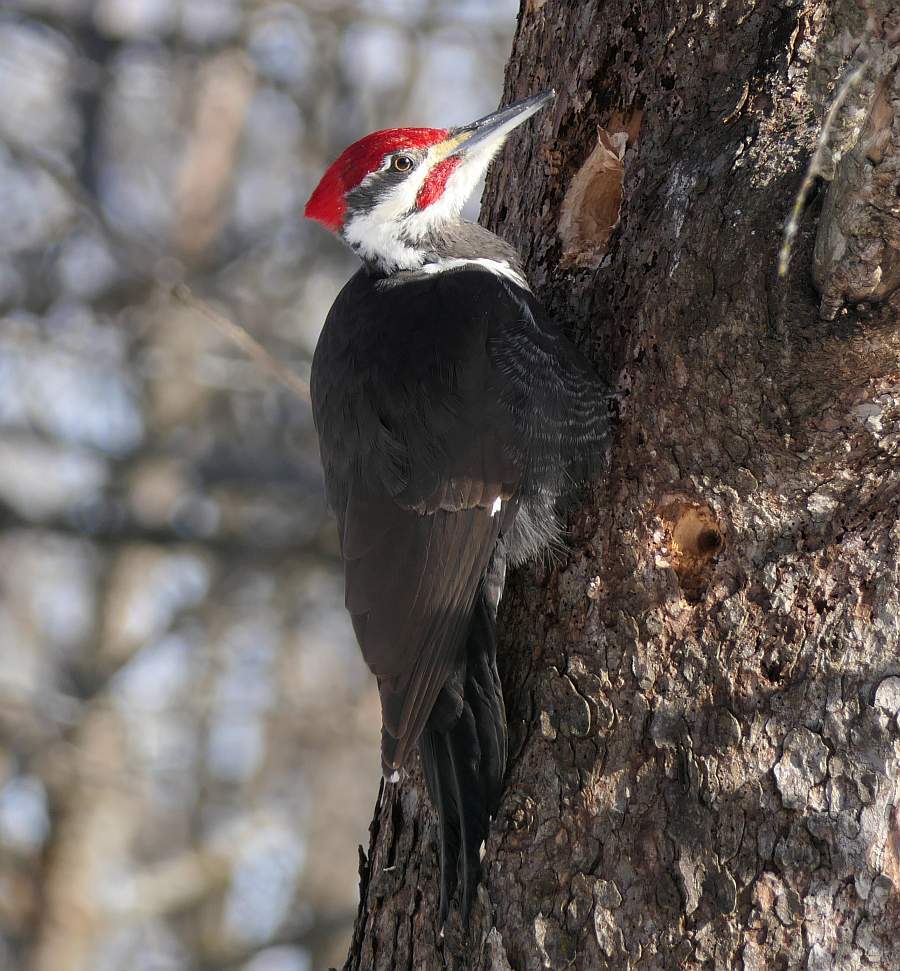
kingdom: Animalia
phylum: Chordata
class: Aves
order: Piciformes
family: Picidae
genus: Dryocopus
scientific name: Dryocopus pileatus
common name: Pileated woodpecker
